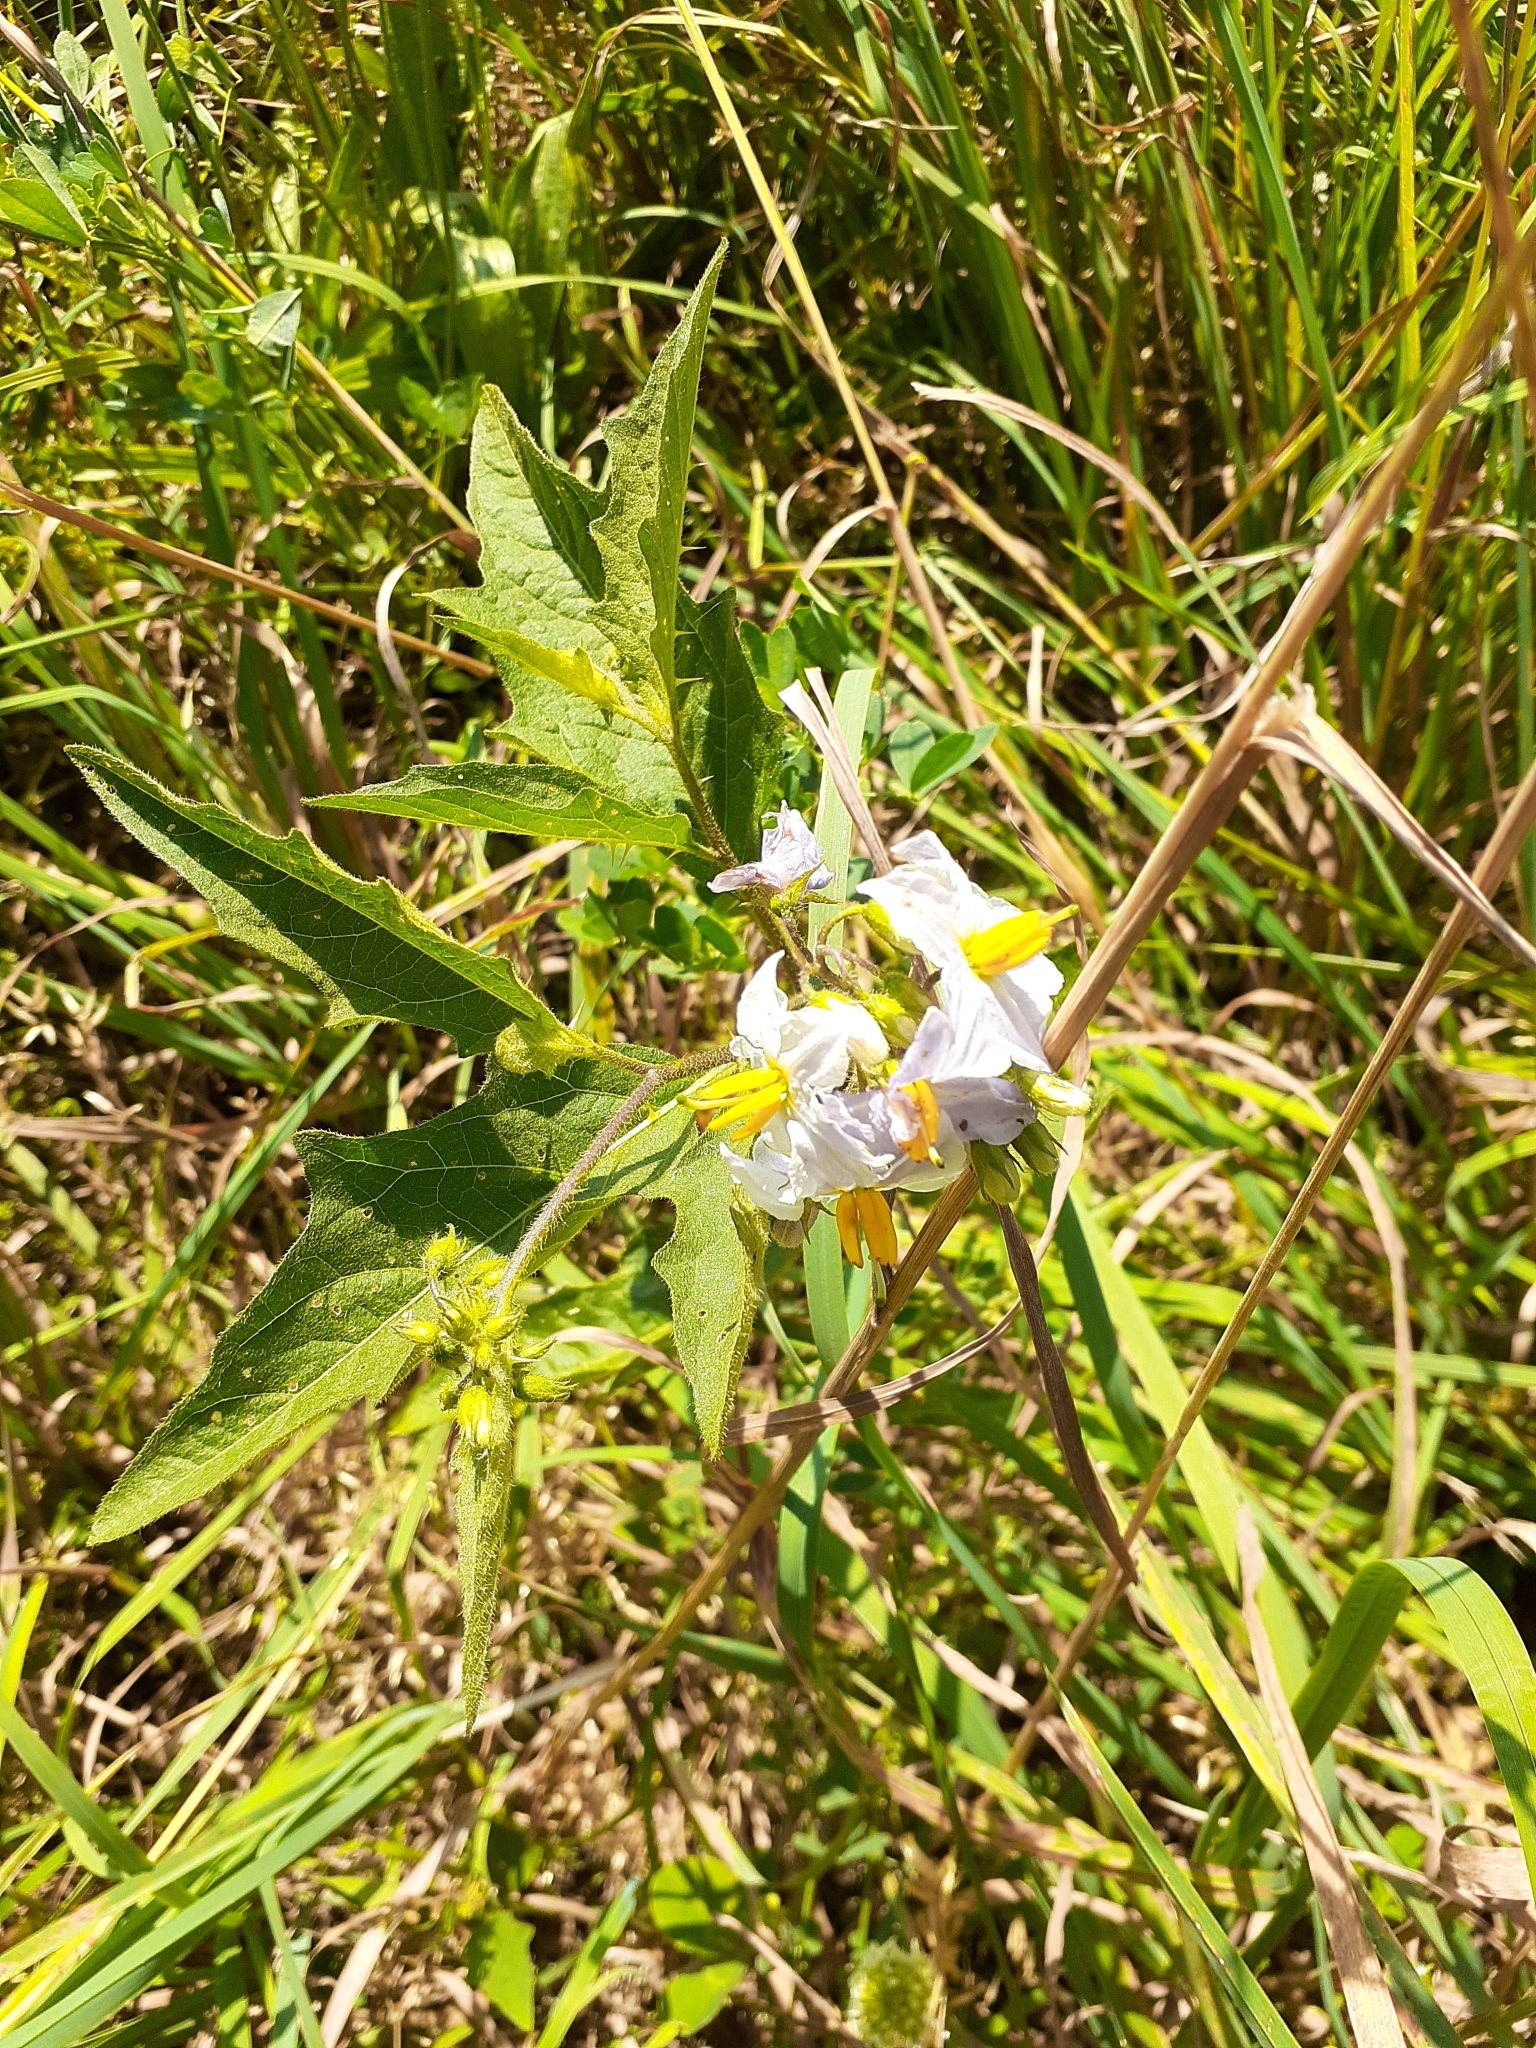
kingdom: Plantae
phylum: Tracheophyta
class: Magnoliopsida
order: Solanales
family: Solanaceae
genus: Solanum
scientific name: Solanum carolinense
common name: Horse-nettle
